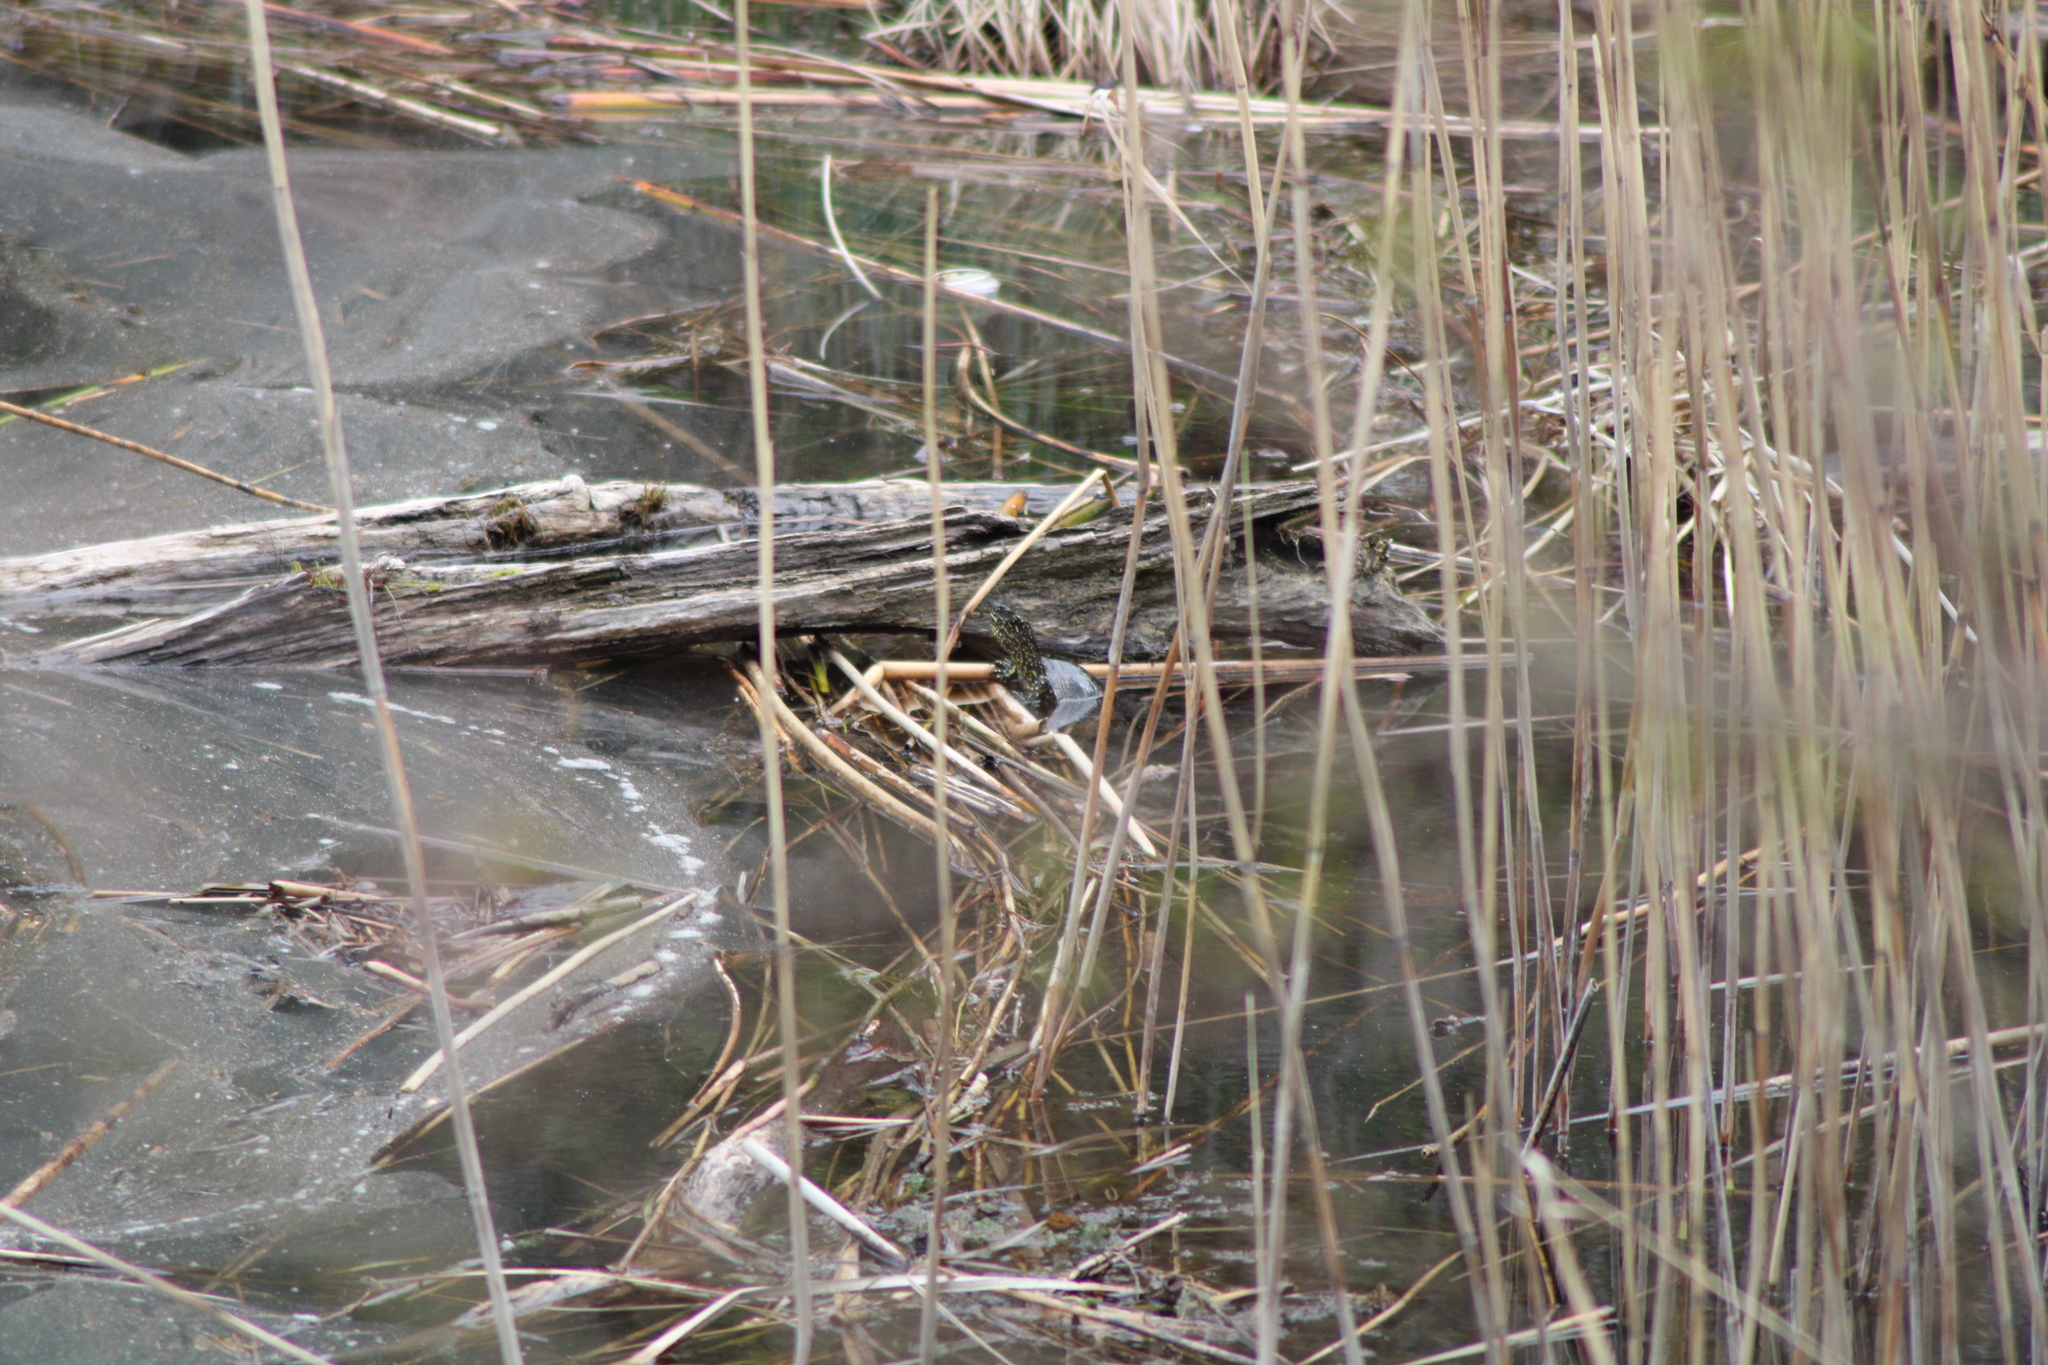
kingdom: Animalia
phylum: Chordata
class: Testudines
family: Emydidae
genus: Emys
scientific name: Emys orbicularis
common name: European pond turtle
